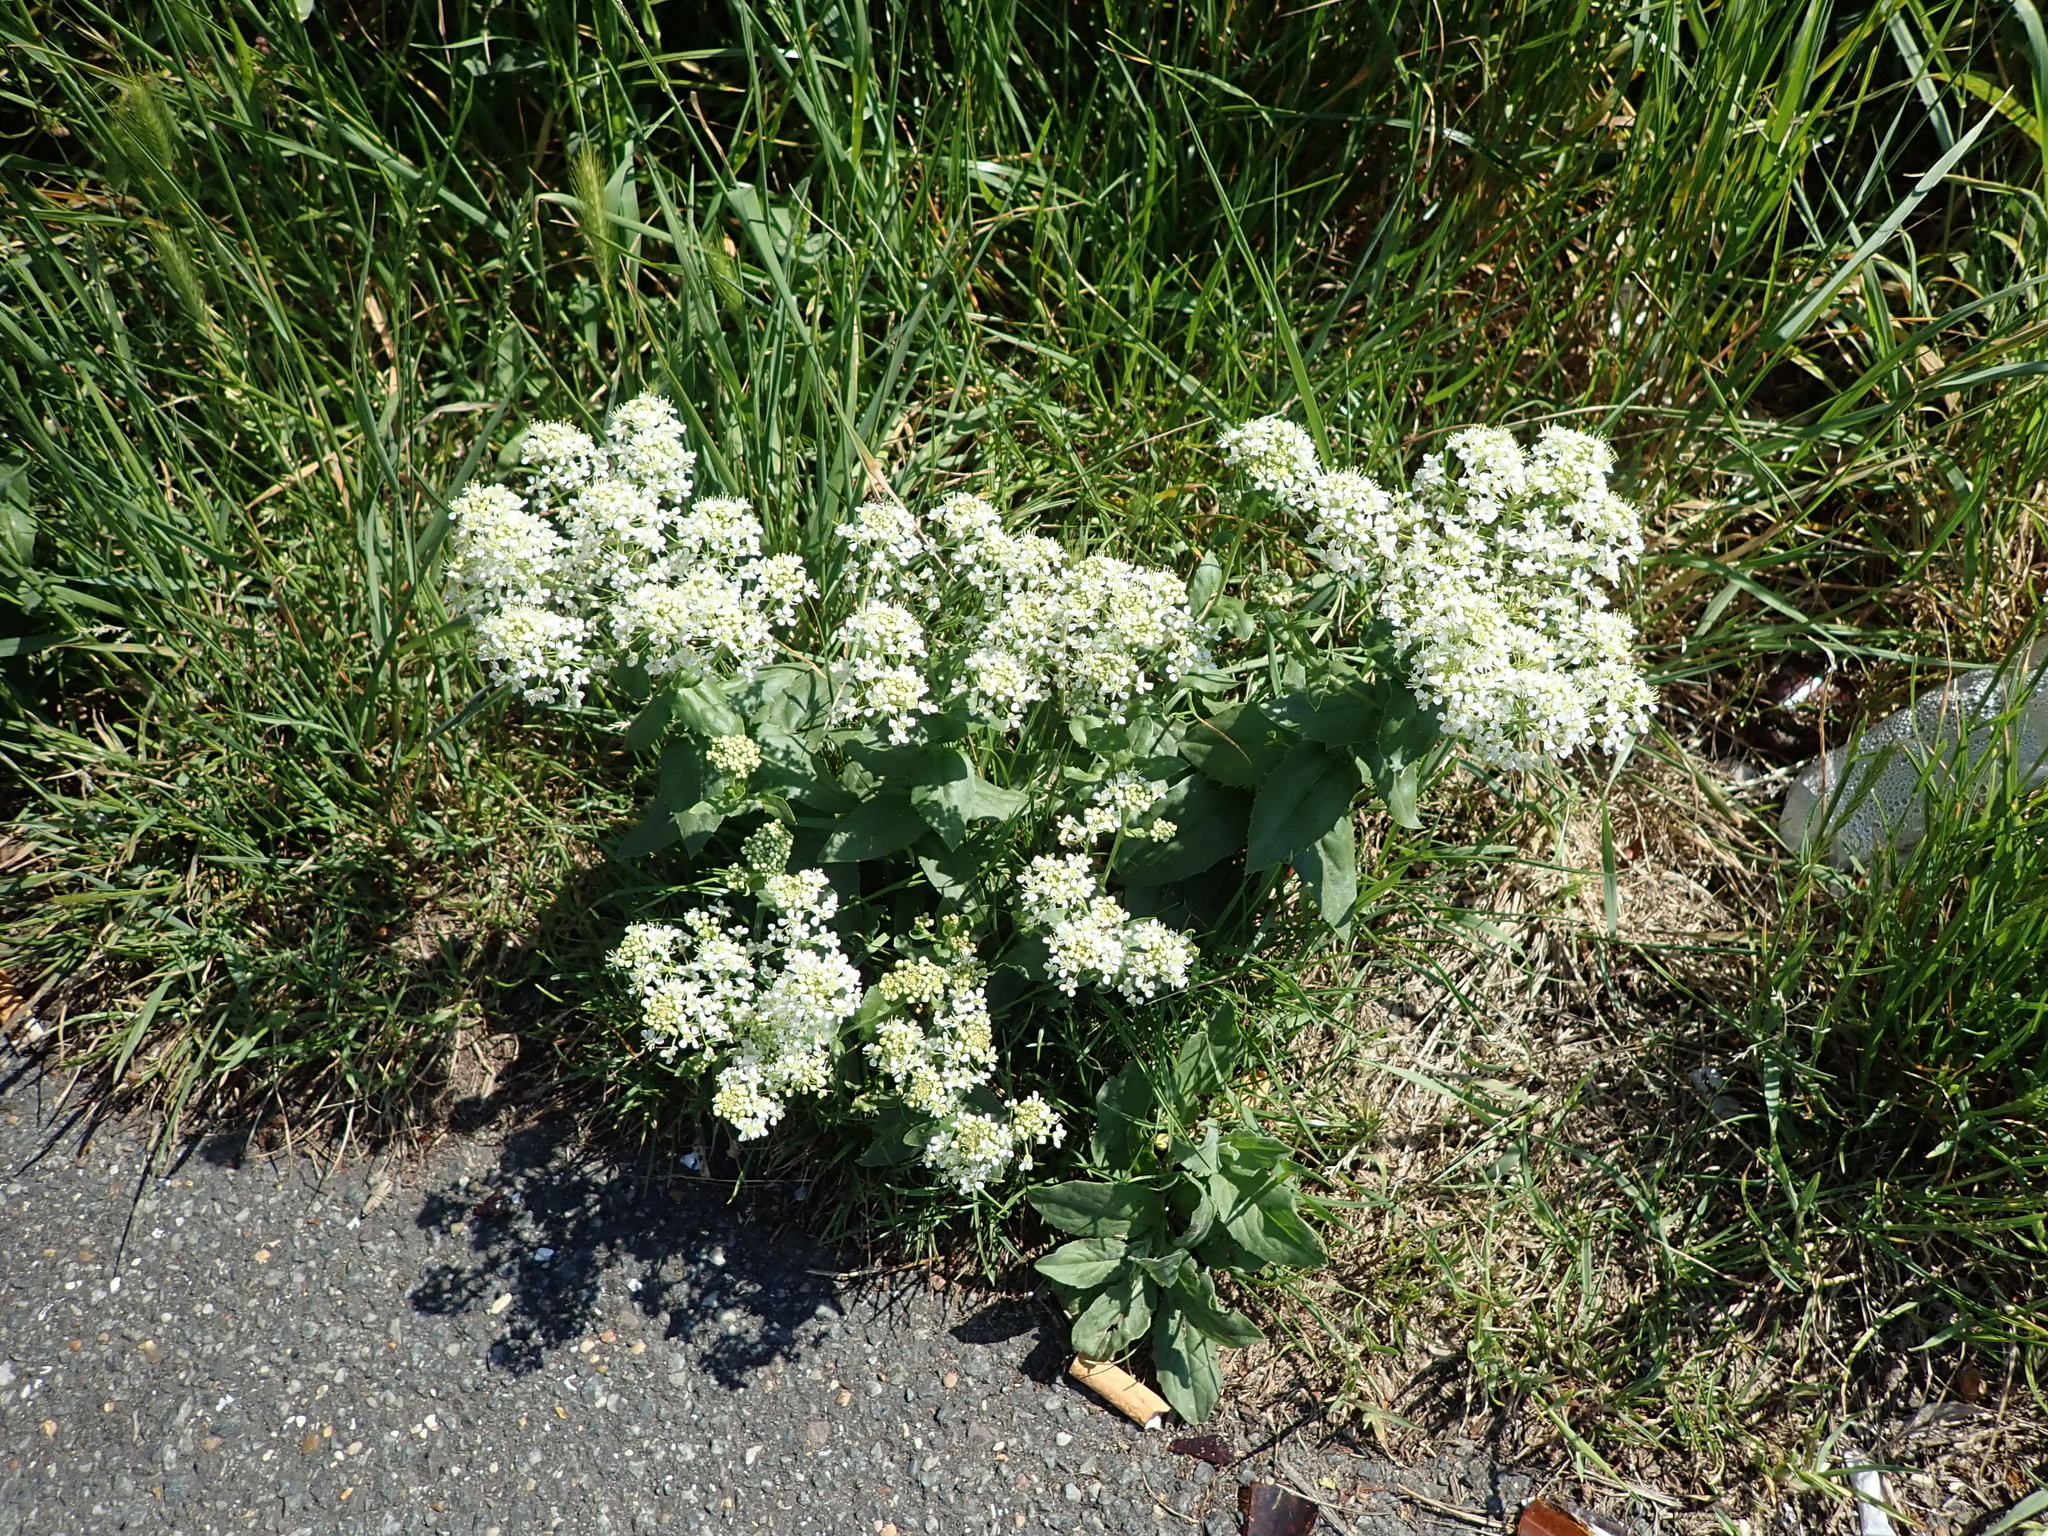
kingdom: Plantae
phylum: Tracheophyta
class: Magnoliopsida
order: Brassicales
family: Brassicaceae
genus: Lepidium
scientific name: Lepidium draba
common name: Hoary cress
